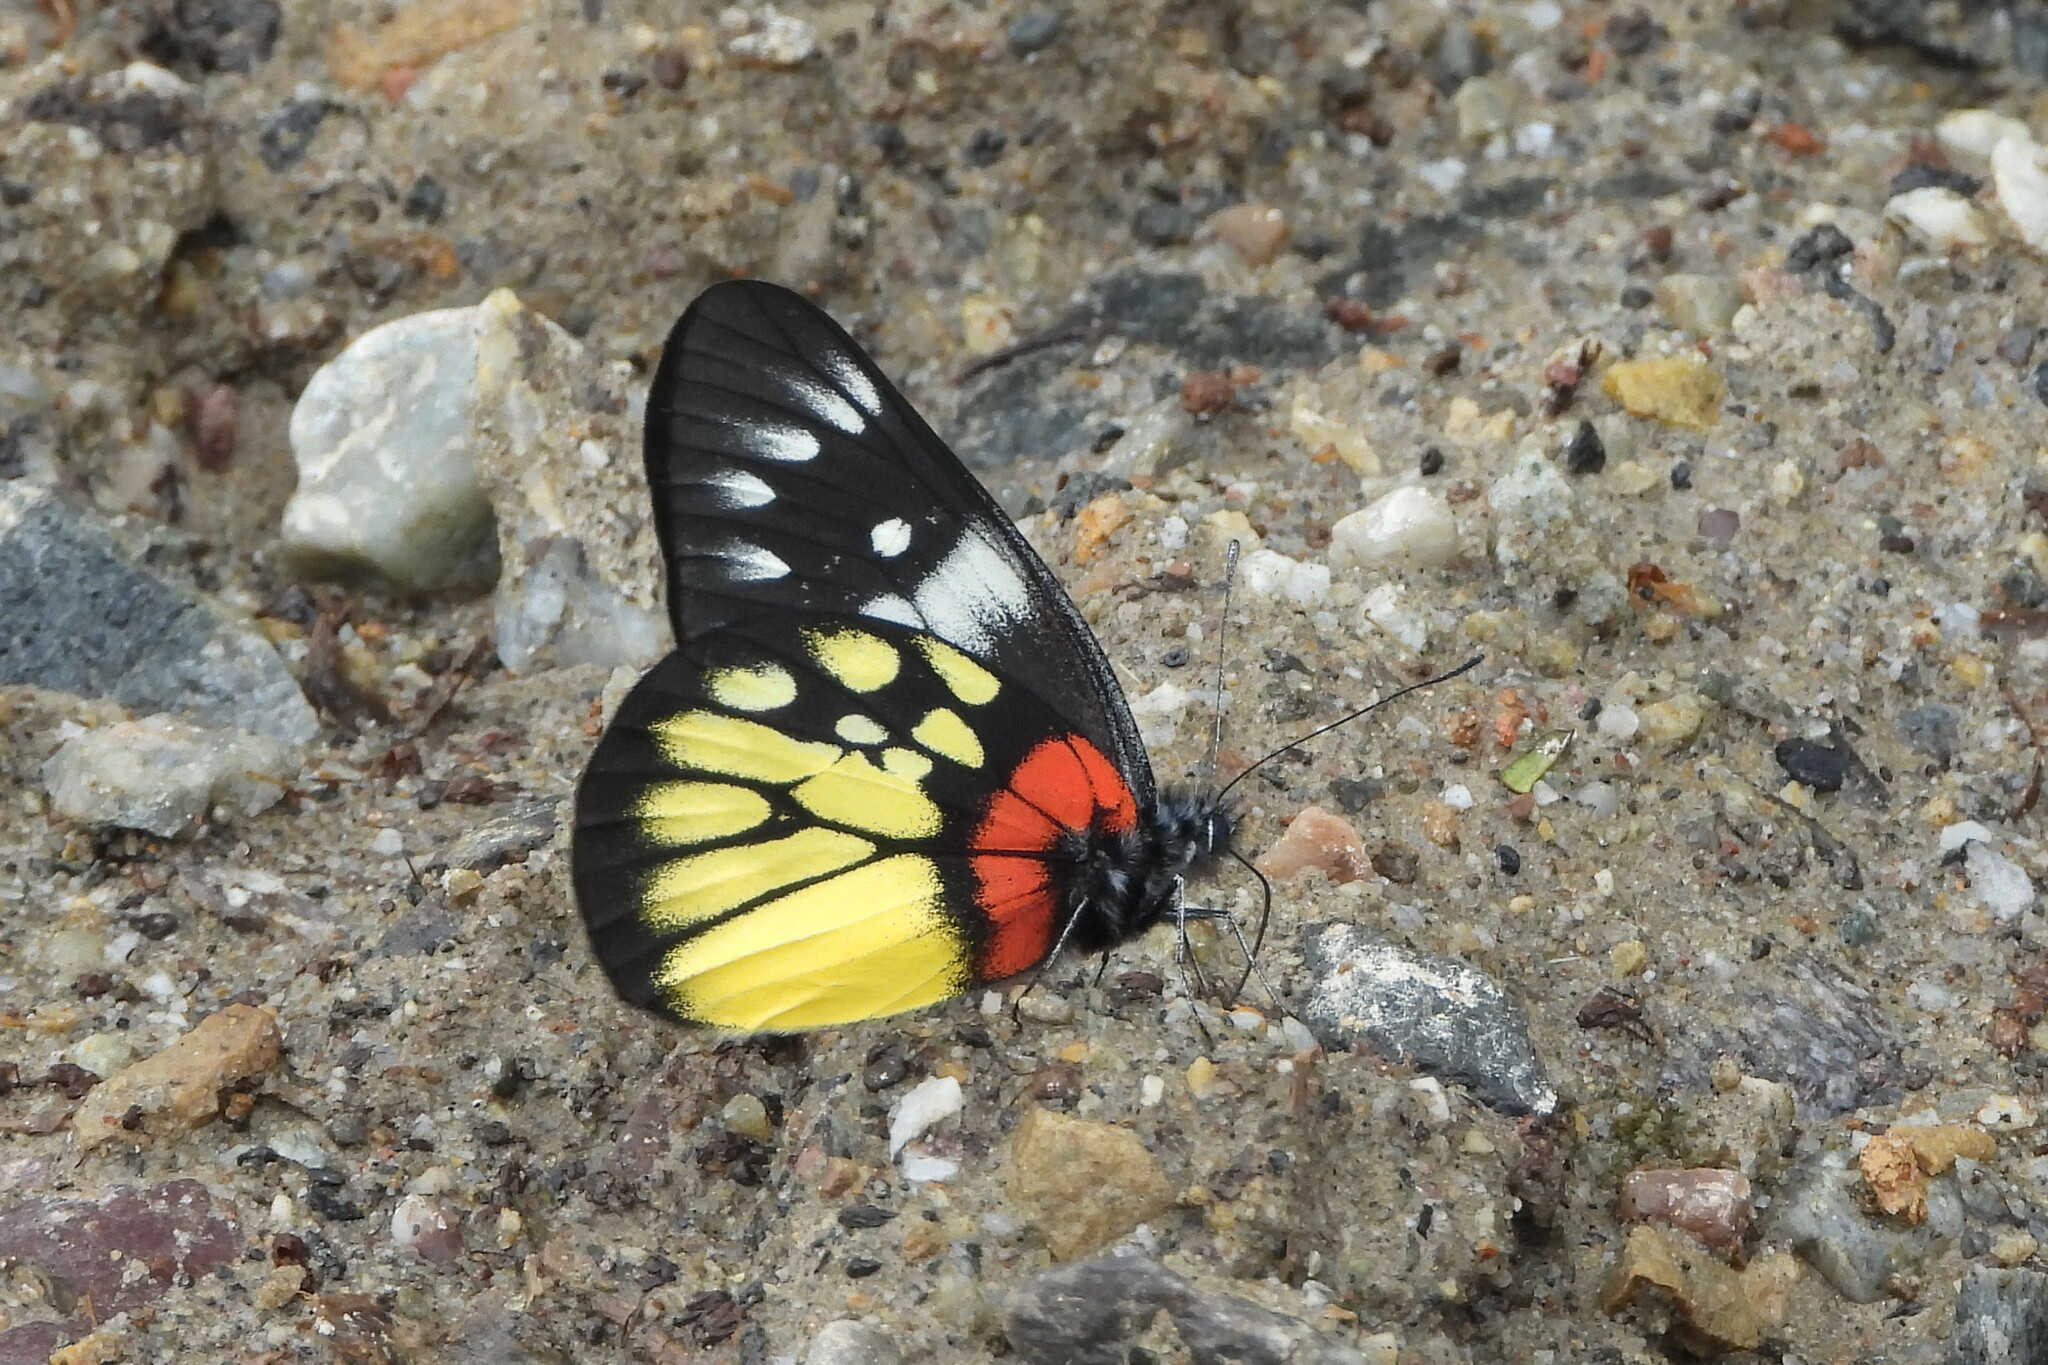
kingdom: Animalia
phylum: Arthropoda
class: Insecta
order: Lepidoptera
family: Pieridae
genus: Delias
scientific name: Delias pasithoe
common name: Red-base jezebel
